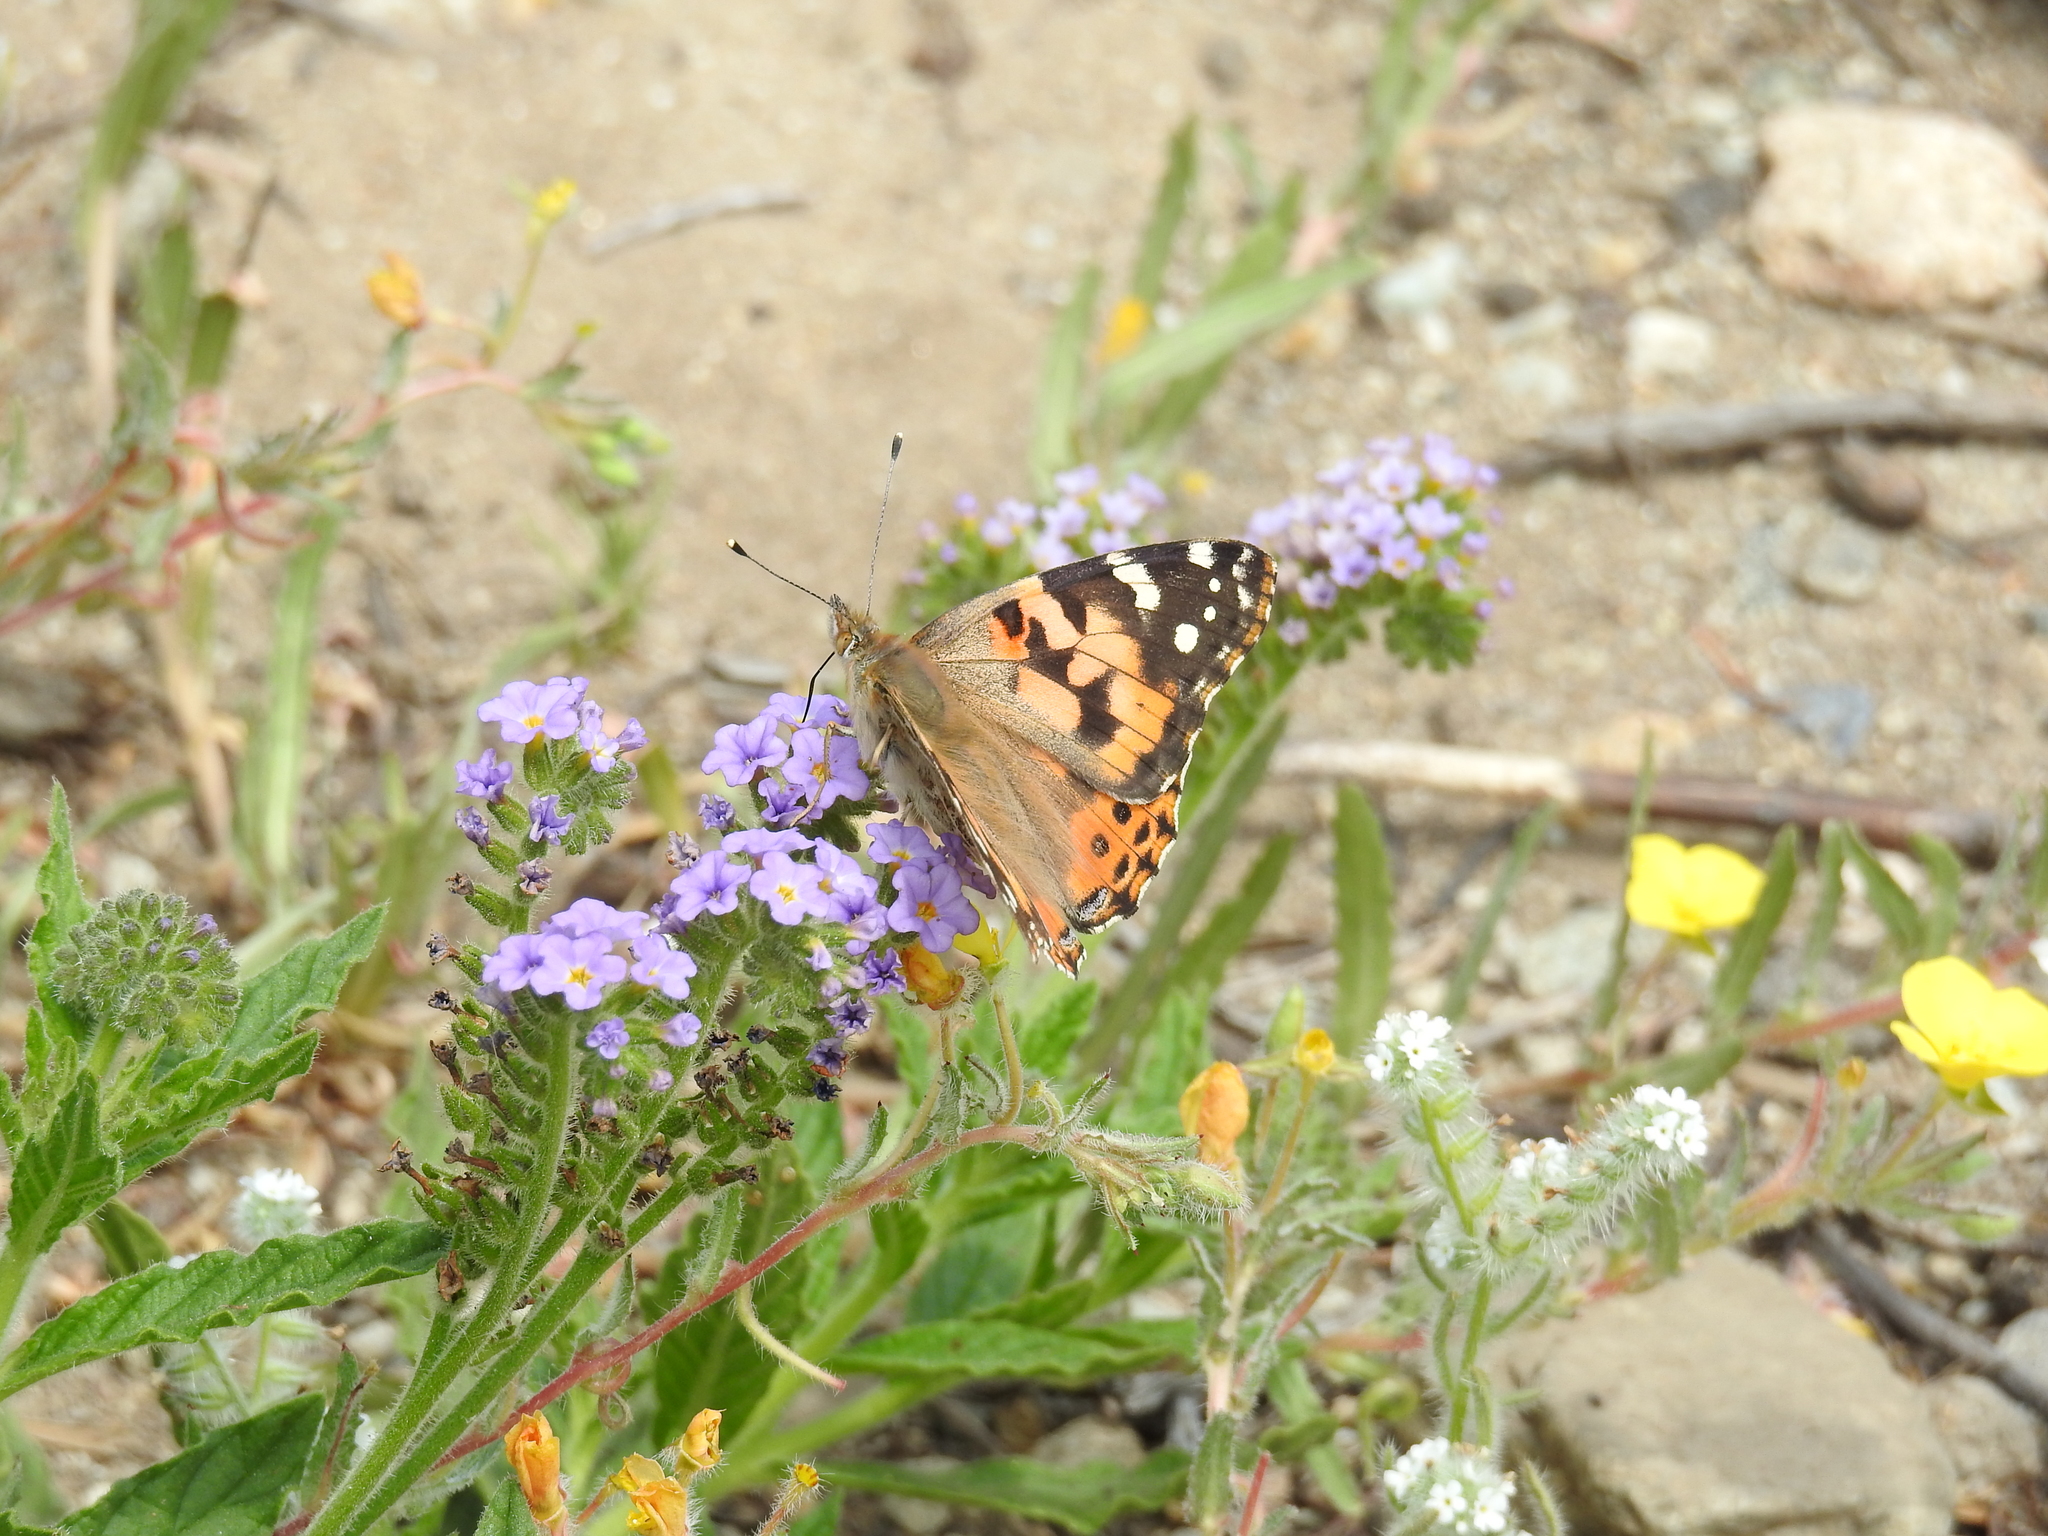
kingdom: Animalia
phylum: Arthropoda
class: Insecta
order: Lepidoptera
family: Nymphalidae
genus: Vanessa
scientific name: Vanessa cardui
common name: Painted lady
